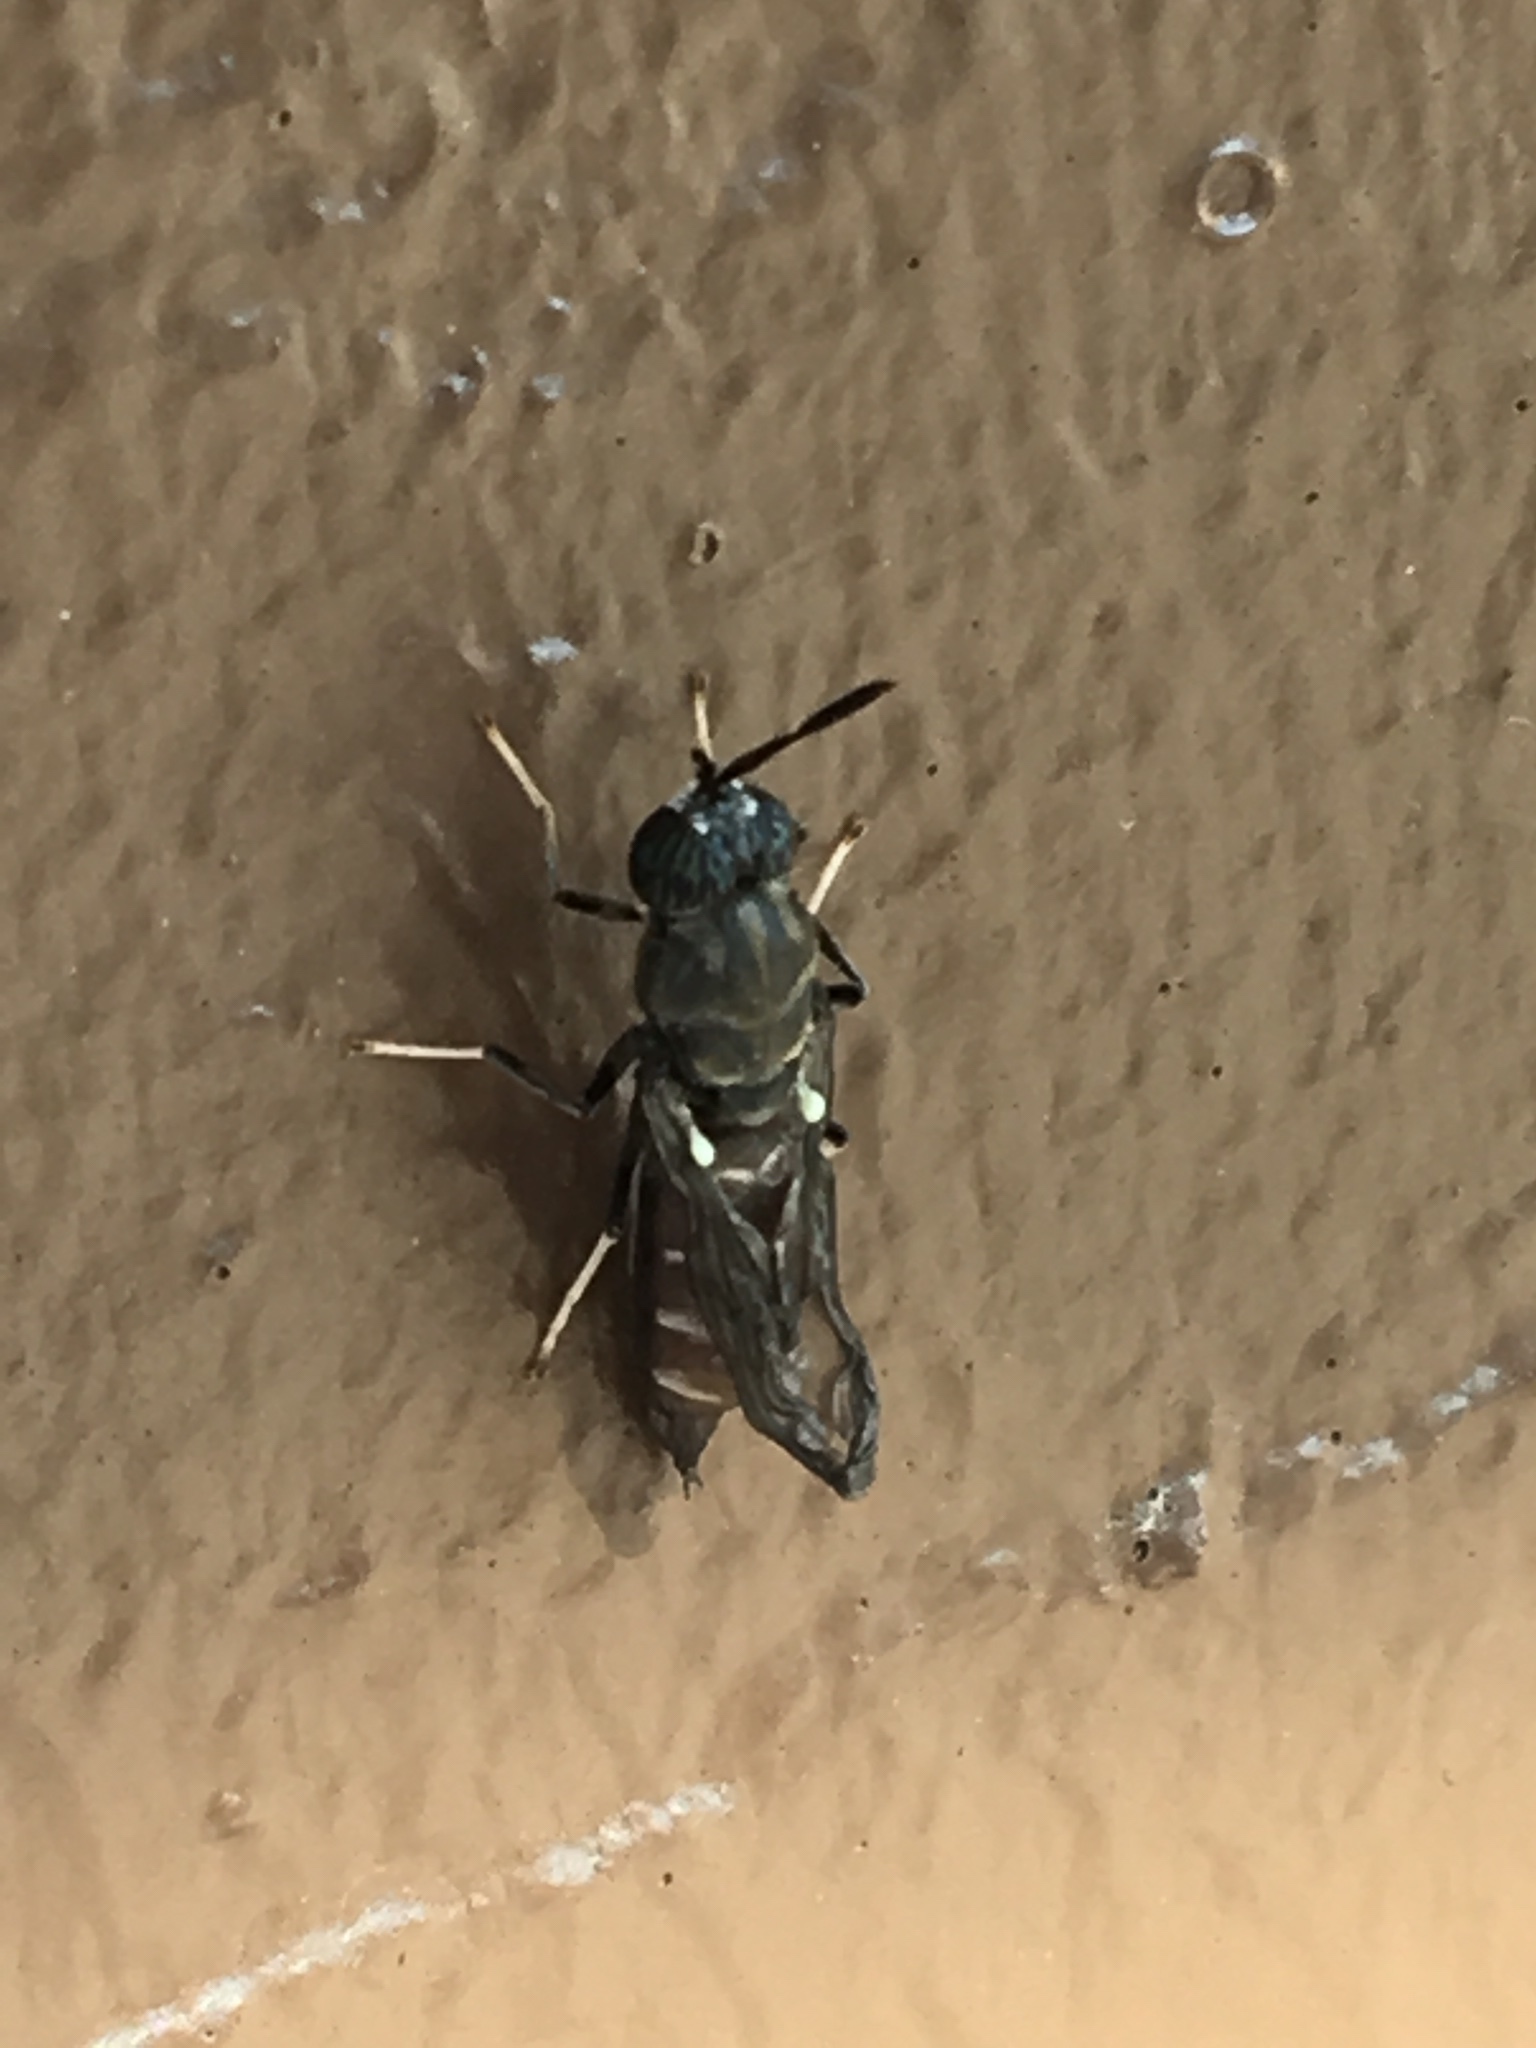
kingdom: Animalia
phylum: Arthropoda
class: Insecta
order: Diptera
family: Stratiomyidae
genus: Hermetia
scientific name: Hermetia illucens
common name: Black soldier fly
